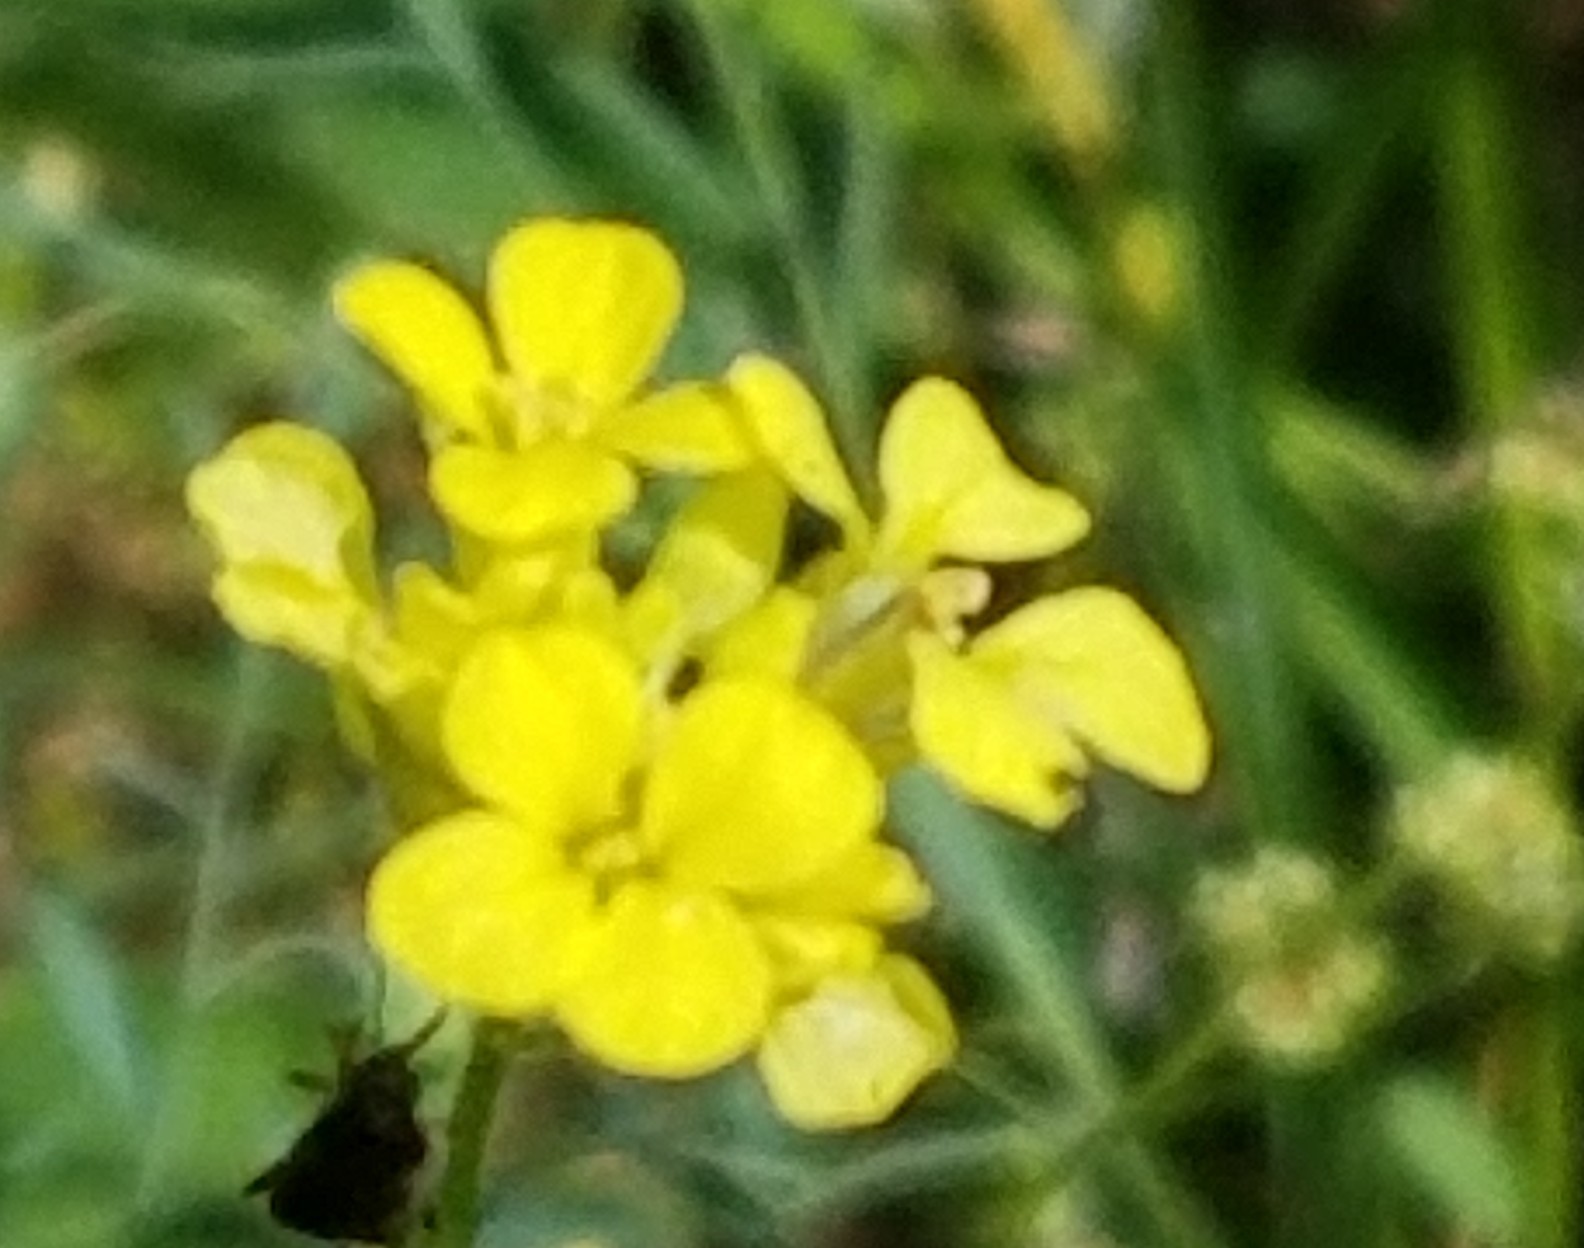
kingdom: Plantae
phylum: Tracheophyta
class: Magnoliopsida
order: Brassicales
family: Brassicaceae
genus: Rapistrum
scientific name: Rapistrum rugosum
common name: Annual bastardcabbage
